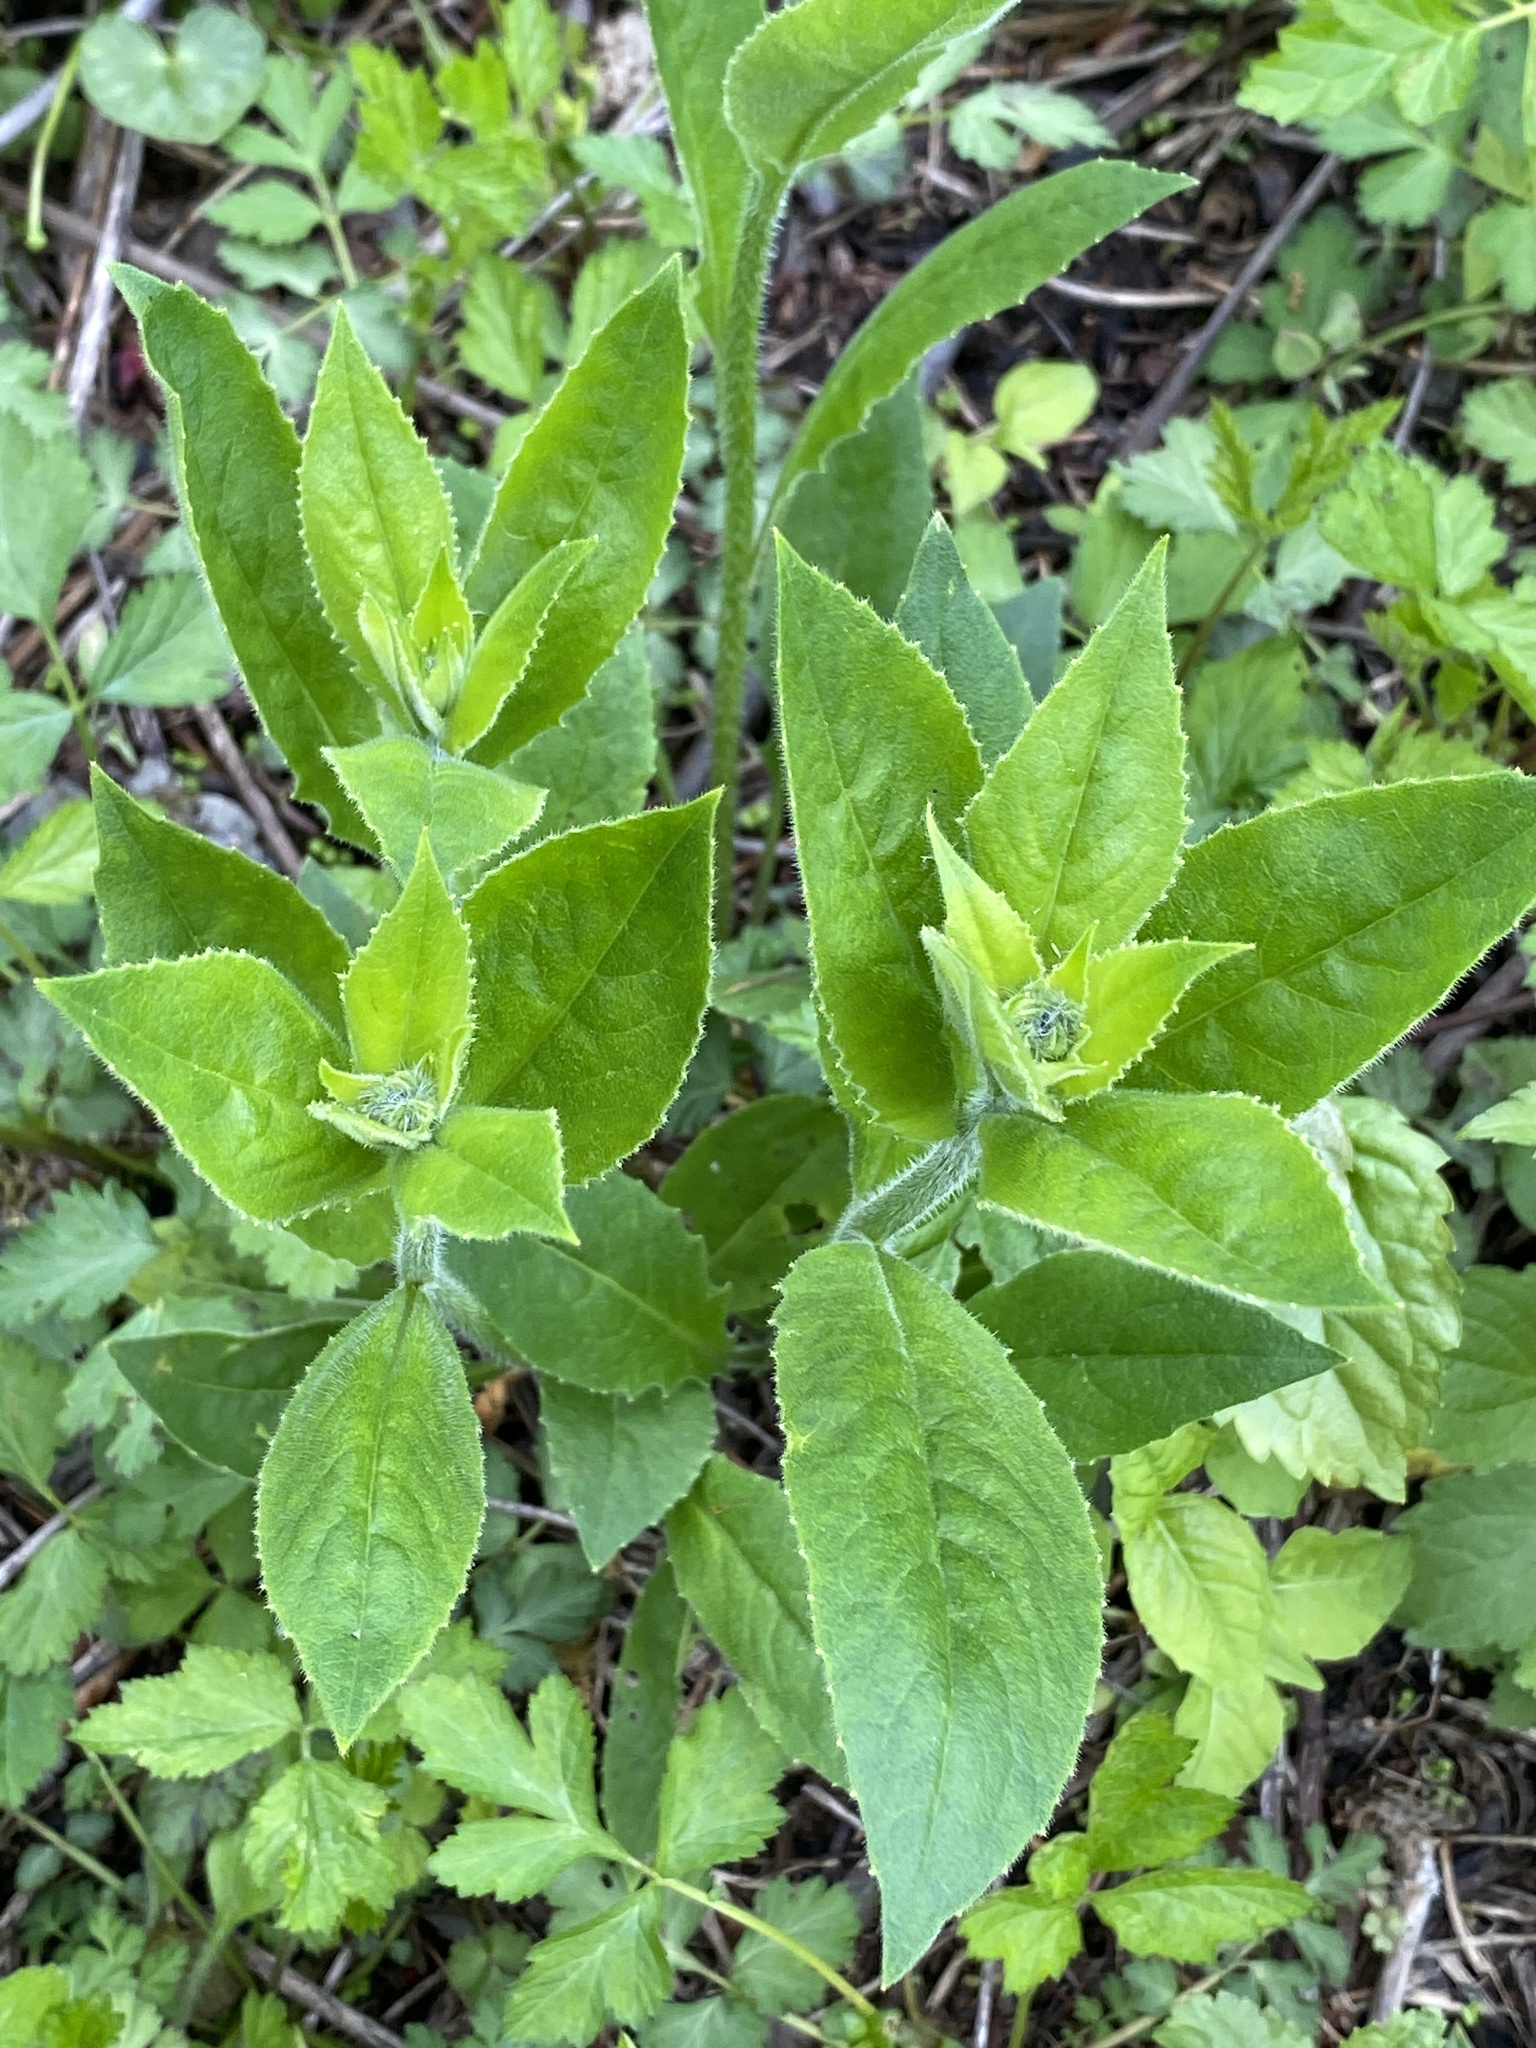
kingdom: Plantae
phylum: Tracheophyta
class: Magnoliopsida
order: Brassicales
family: Brassicaceae
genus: Hesperis
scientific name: Hesperis matronalis
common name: Dame's-violet
